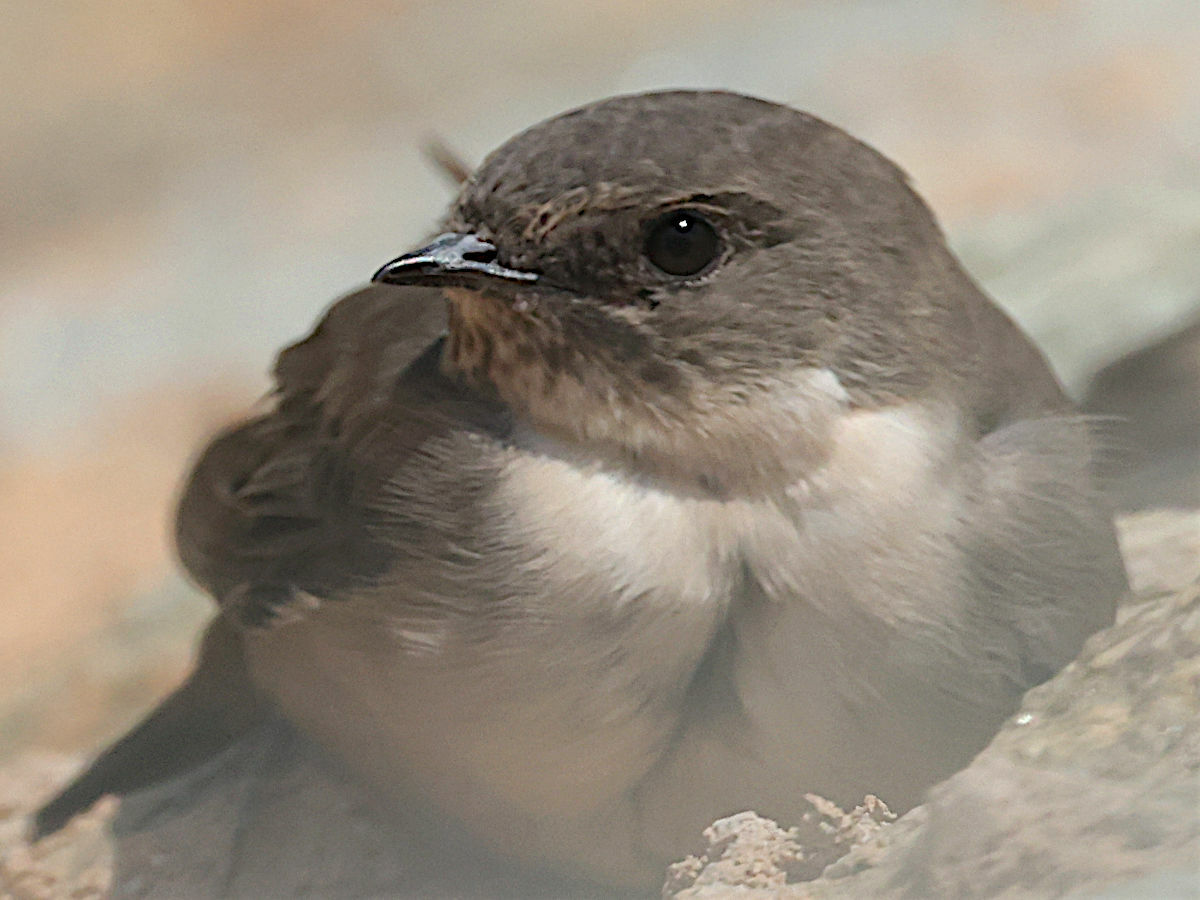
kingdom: Animalia
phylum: Chordata
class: Aves
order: Passeriformes
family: Hirundinidae
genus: Ptyonoprogne
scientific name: Ptyonoprogne rupestris
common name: Eurasian crag martin
